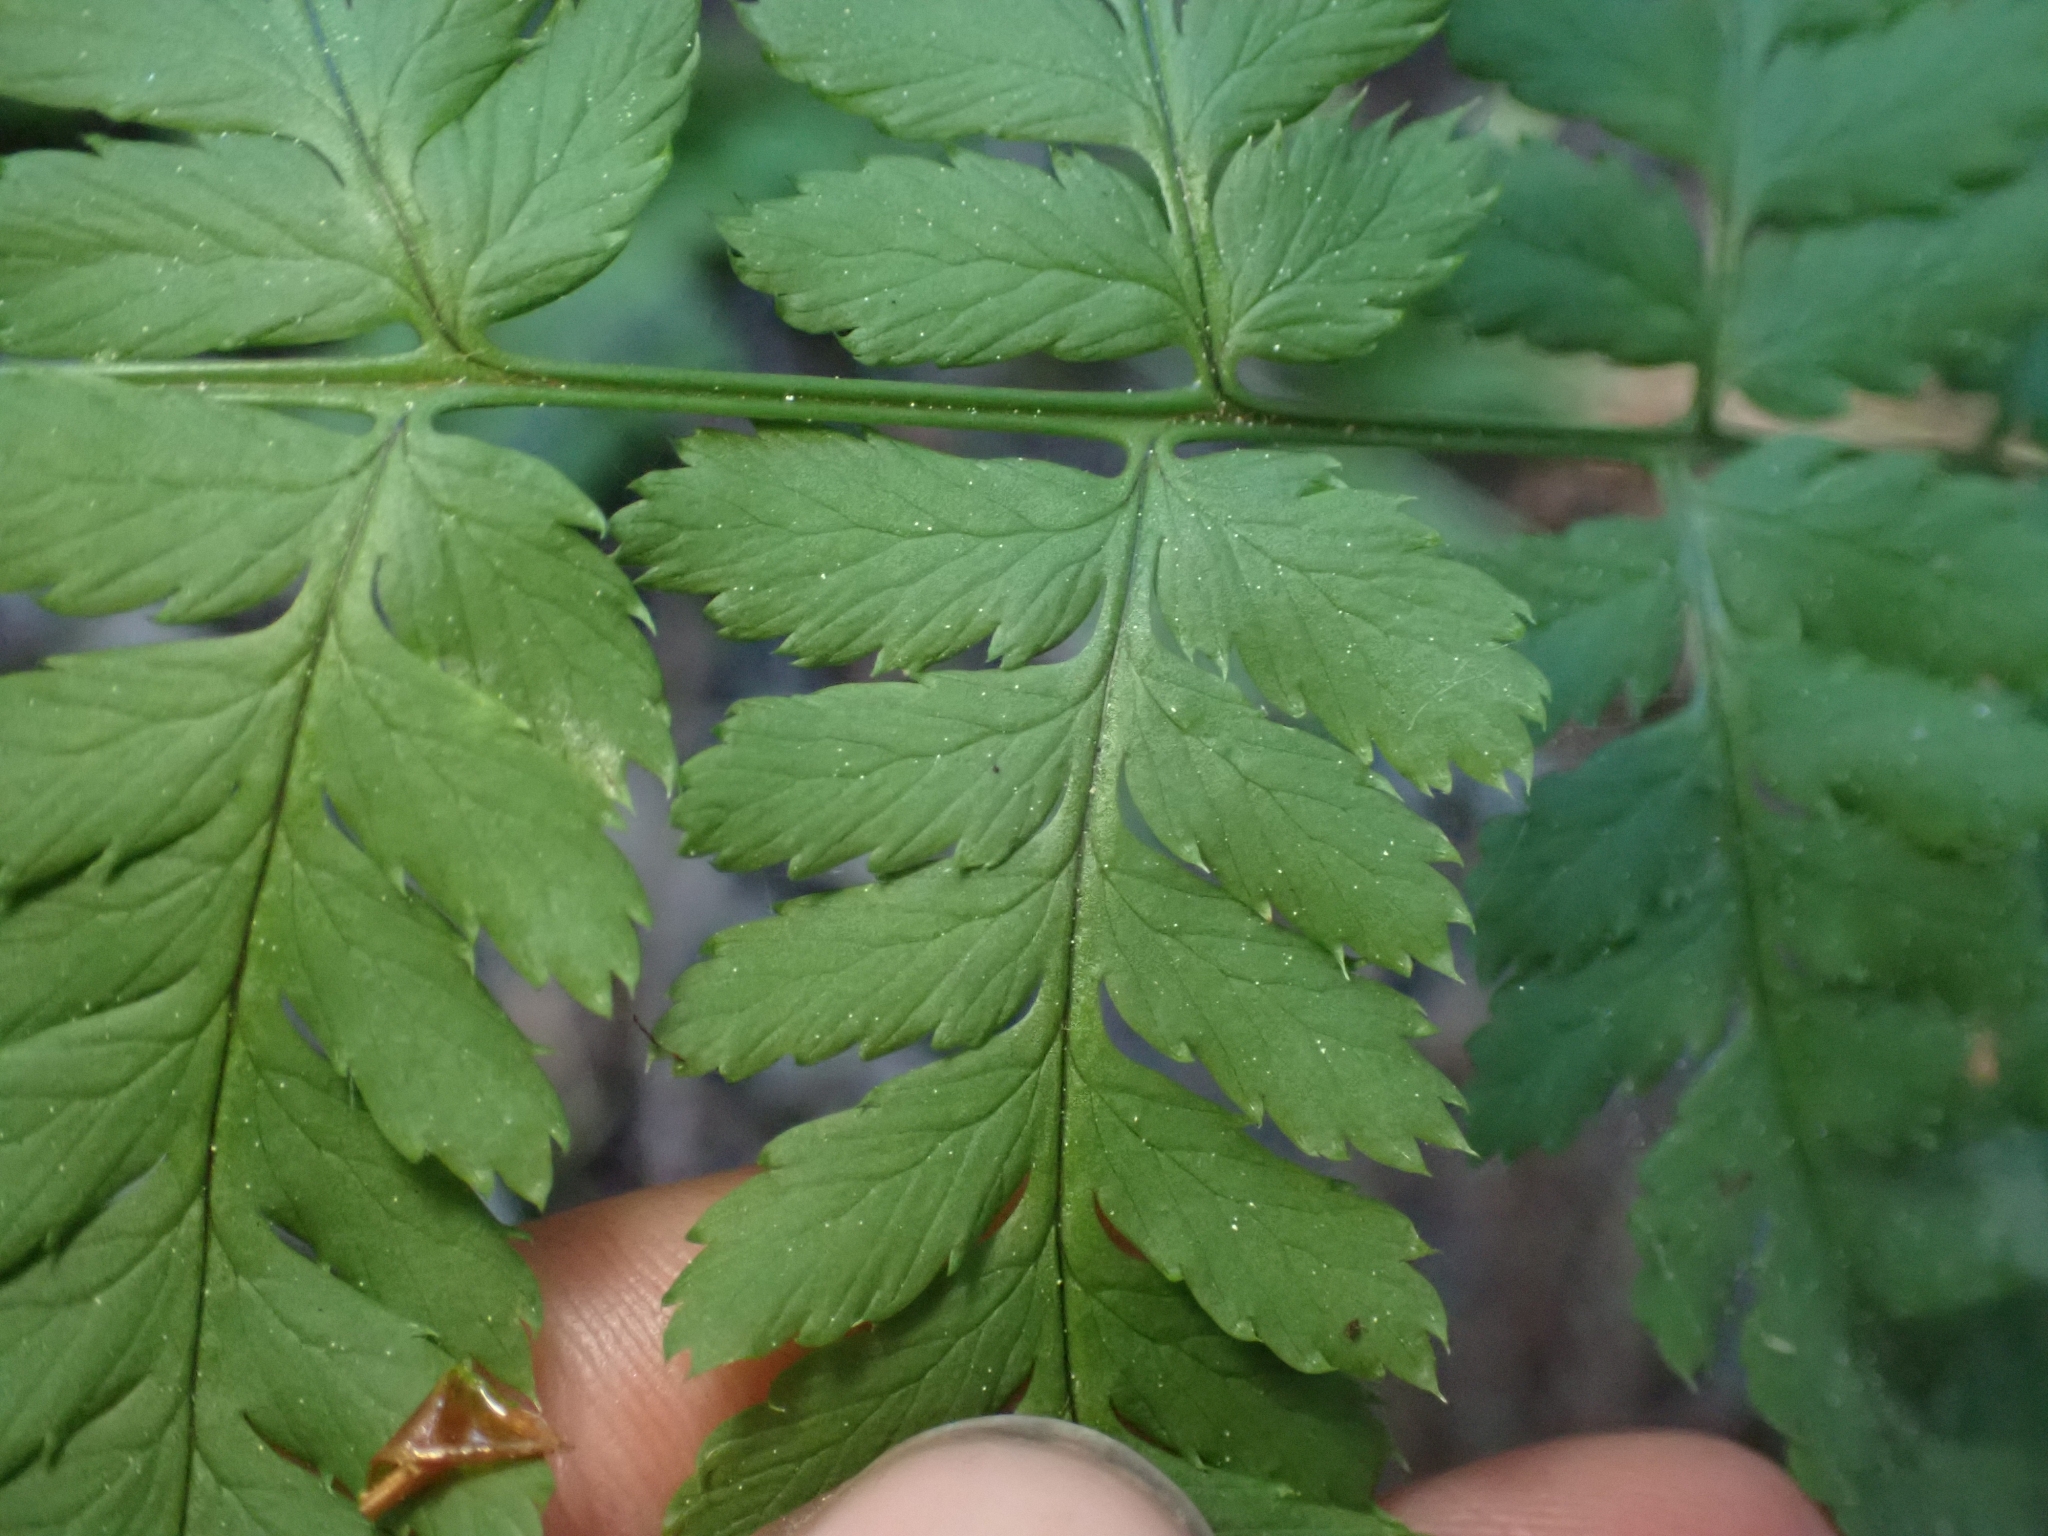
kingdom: Plantae
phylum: Tracheophyta
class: Polypodiopsida
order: Polypodiales
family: Dryopteridaceae
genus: Dryopteris
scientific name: Dryopteris carthusiana
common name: Narrow buckler-fern
